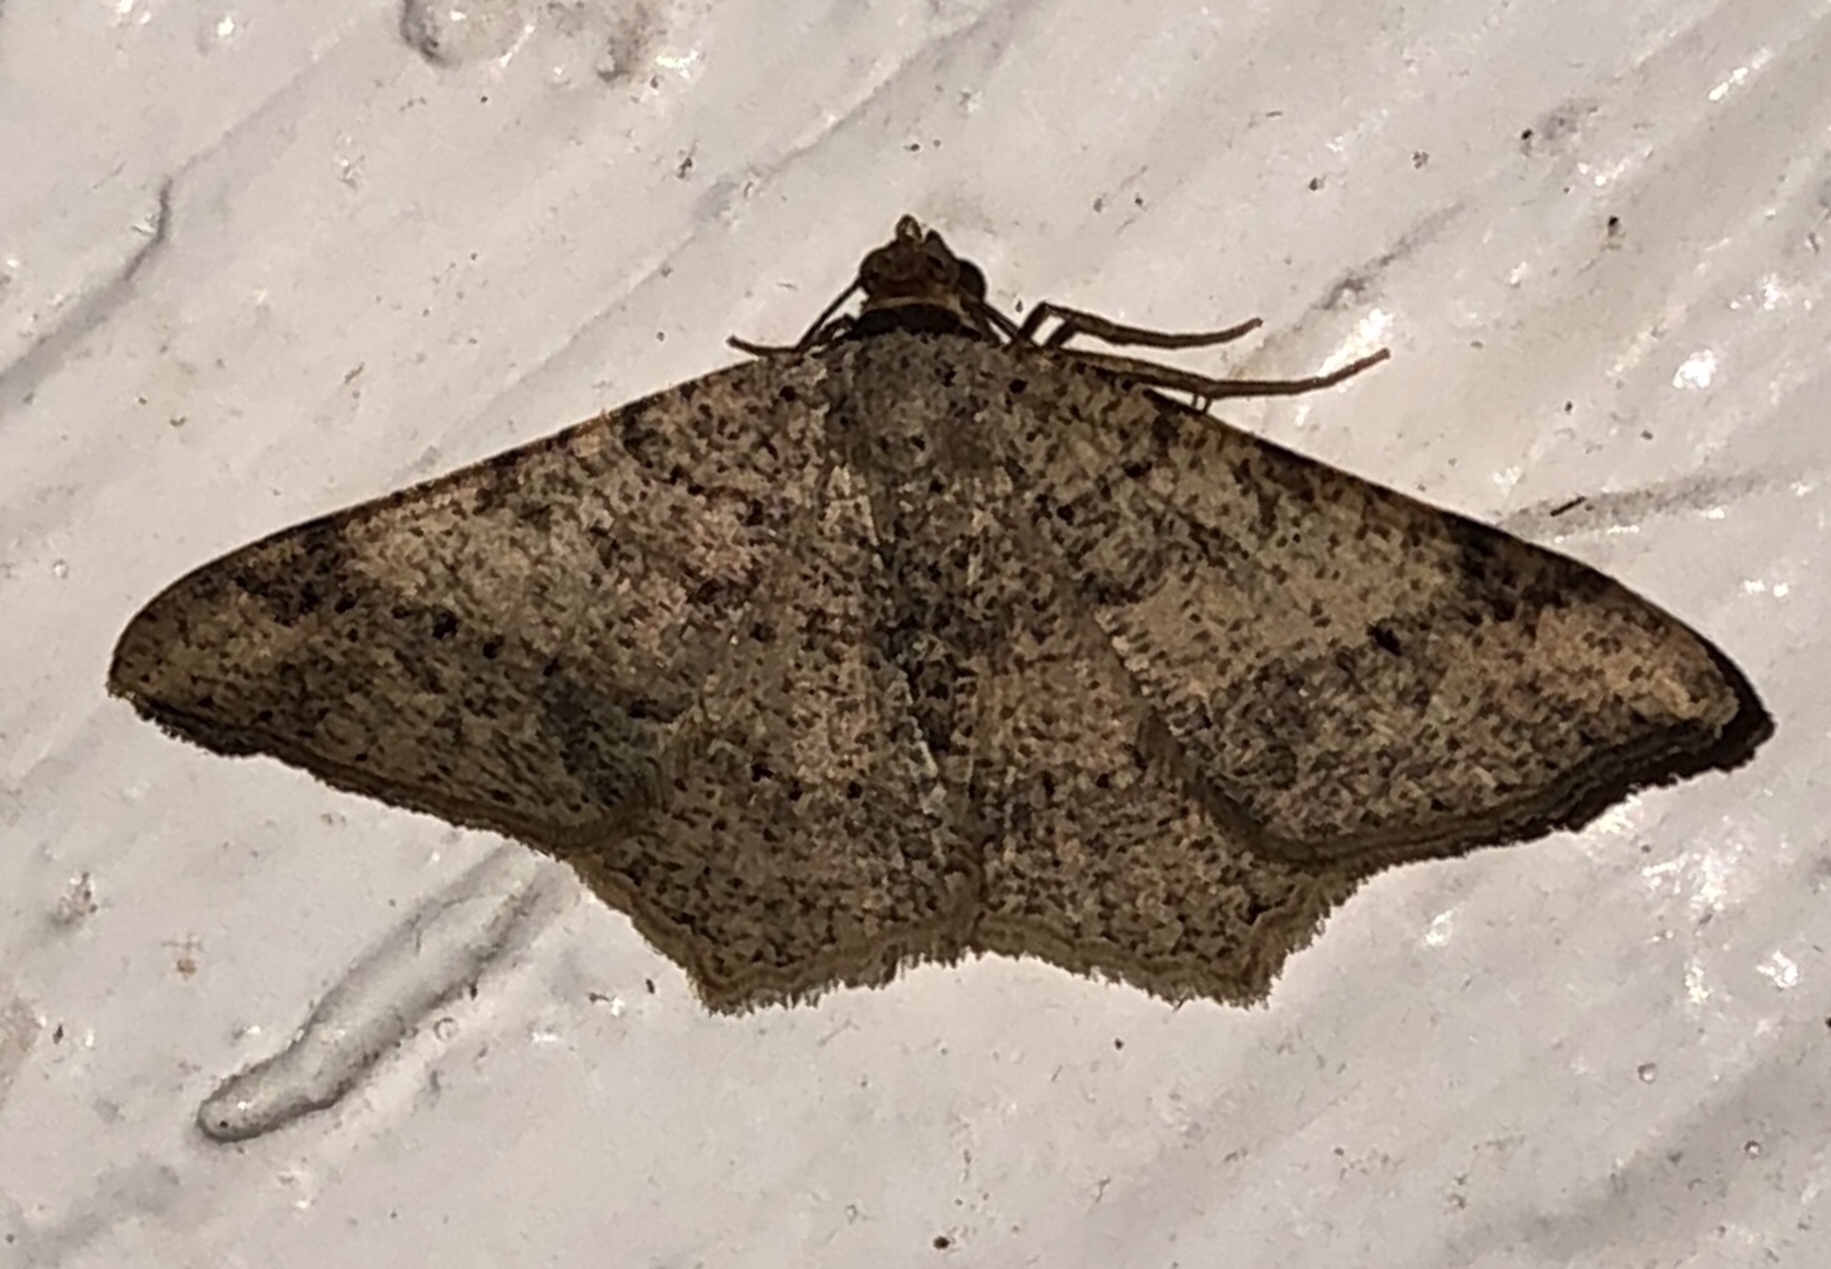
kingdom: Animalia
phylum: Arthropoda
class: Insecta
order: Lepidoptera
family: Geometridae
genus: Macaria
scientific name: Macaria abydata
